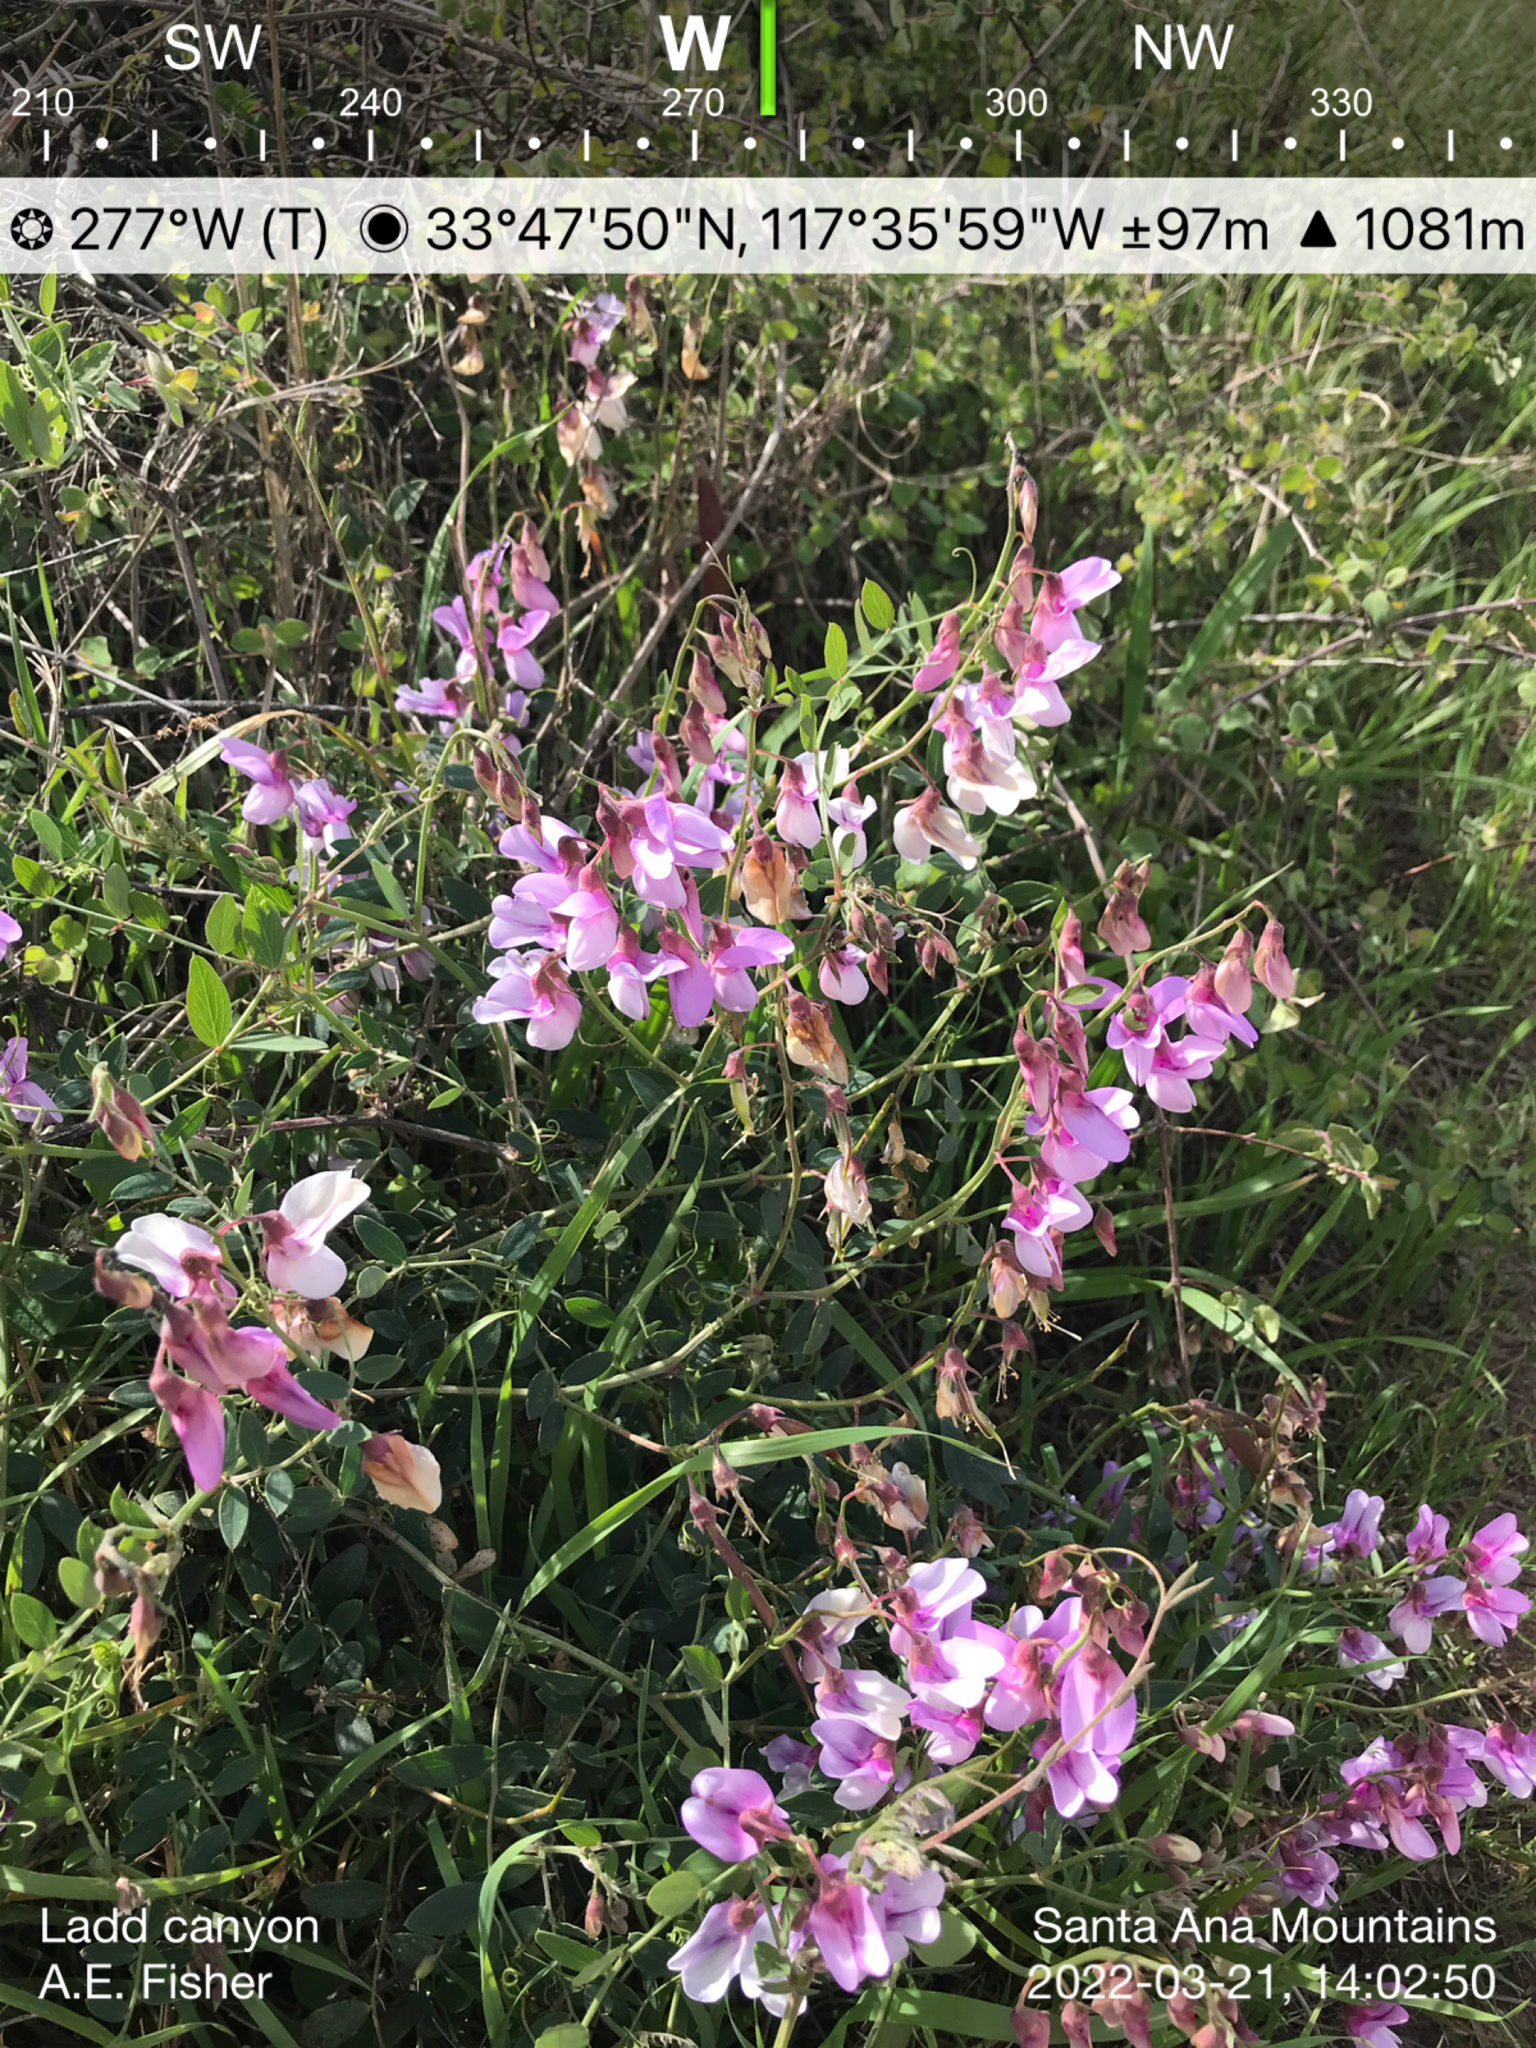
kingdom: Plantae
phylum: Tracheophyta
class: Magnoliopsida
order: Fabales
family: Fabaceae
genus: Lathyrus
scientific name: Lathyrus vestitus
